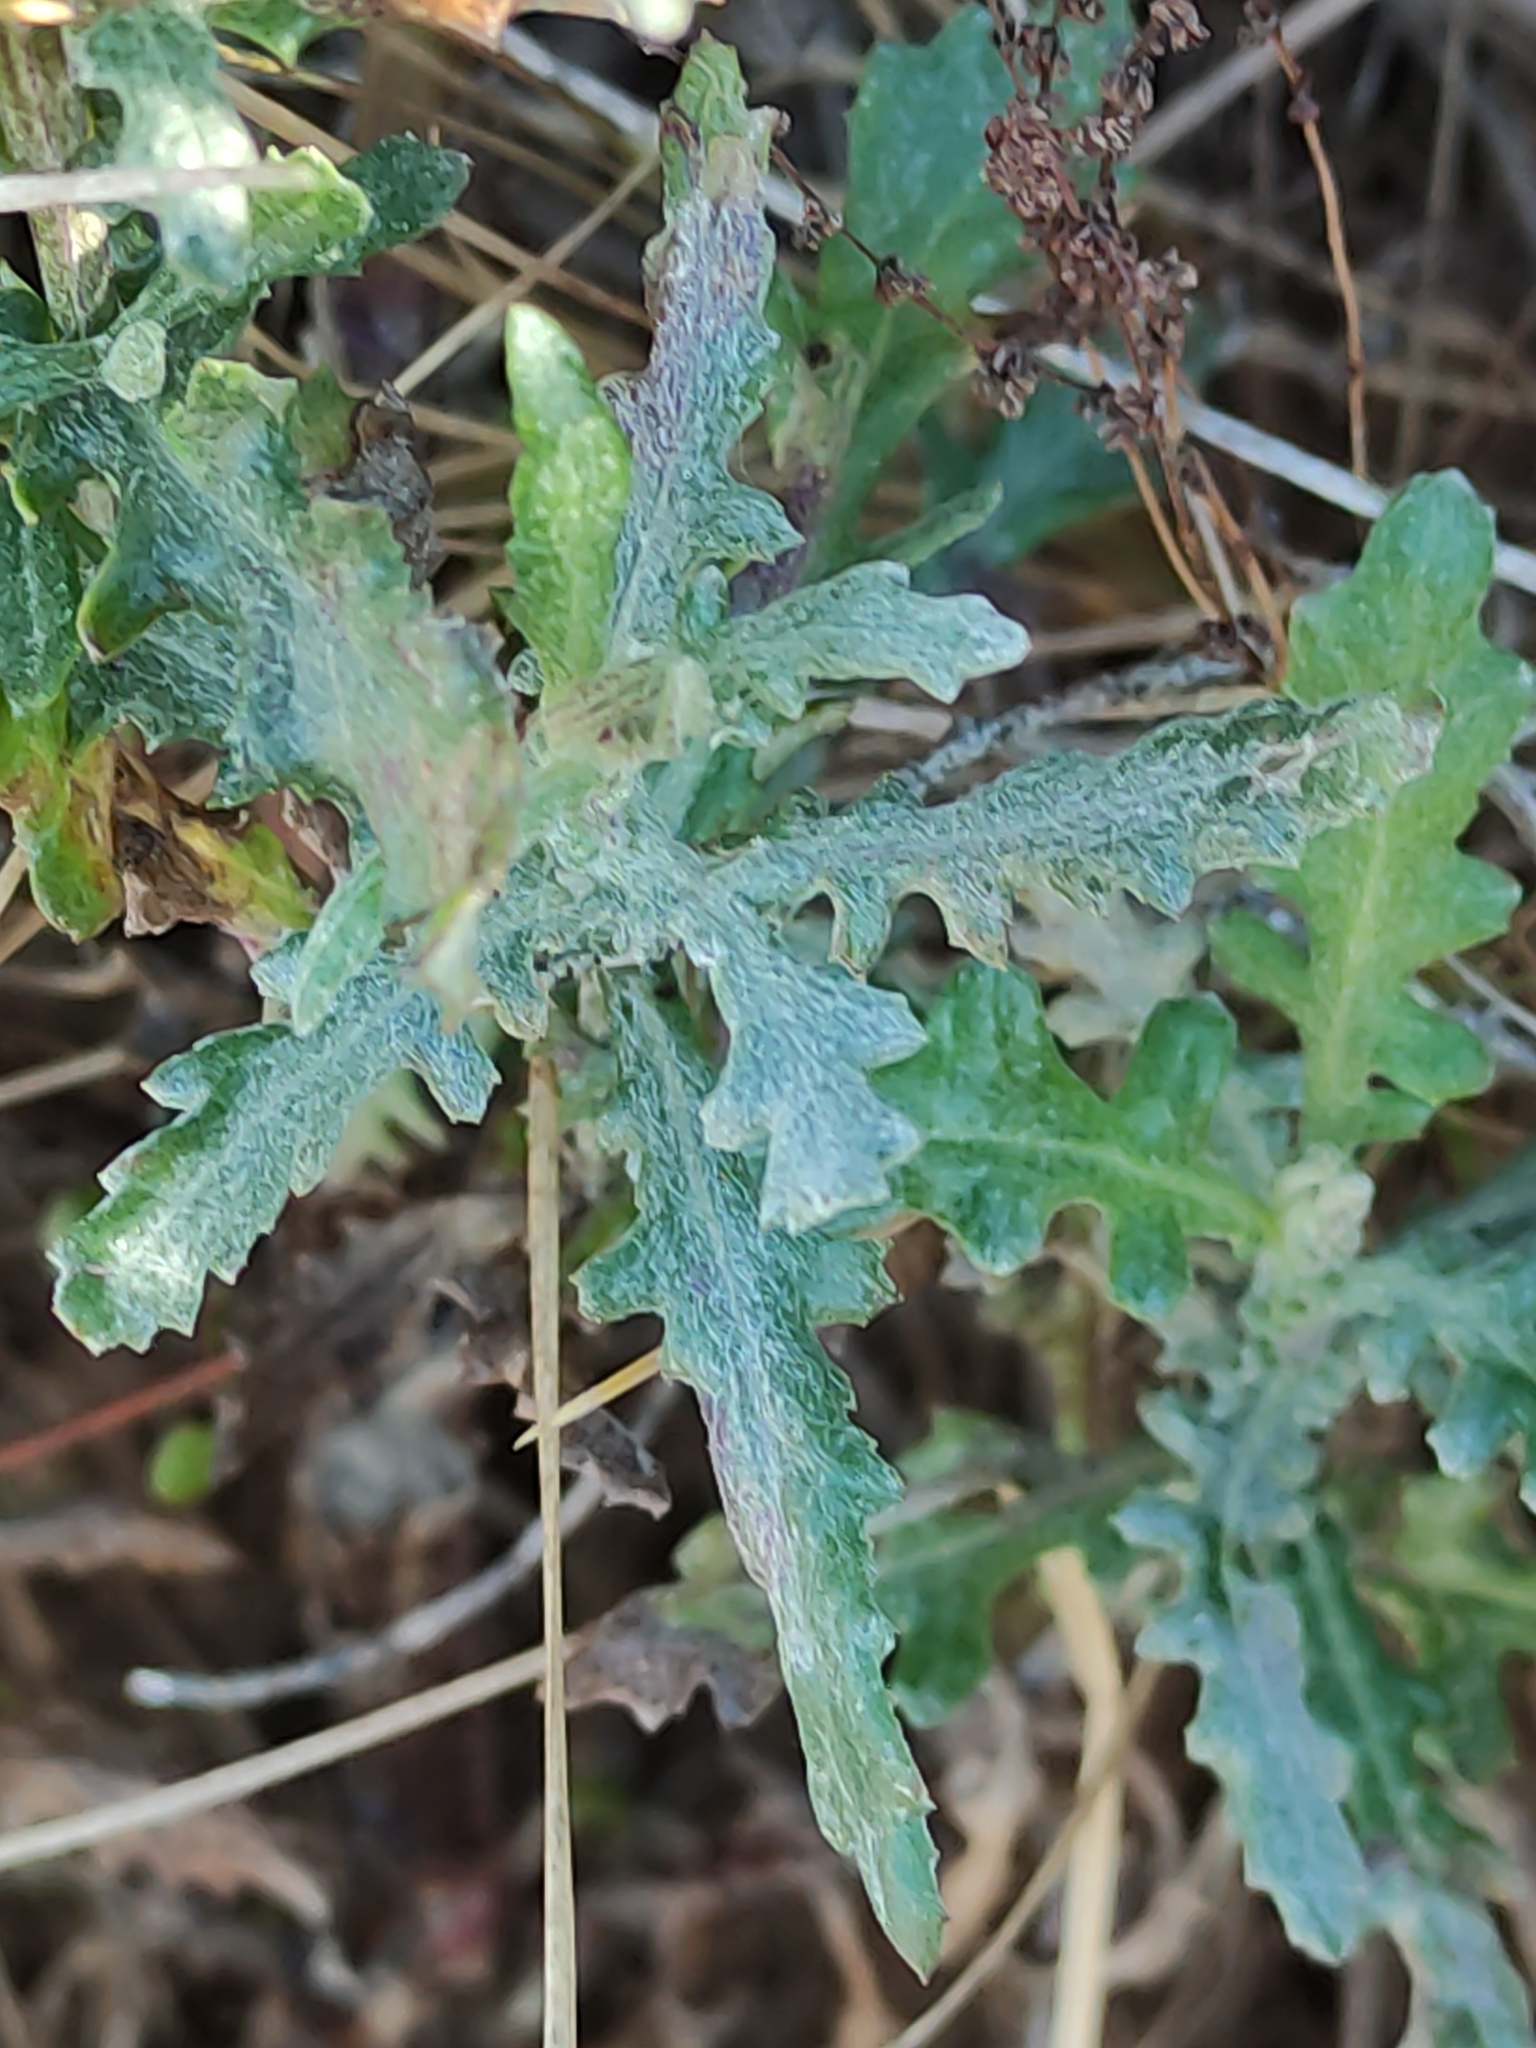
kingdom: Plantae
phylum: Tracheophyta
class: Magnoliopsida
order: Asterales
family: Asteraceae
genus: Senecio
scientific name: Senecio glomeratus
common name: Cutleaf burnweed
